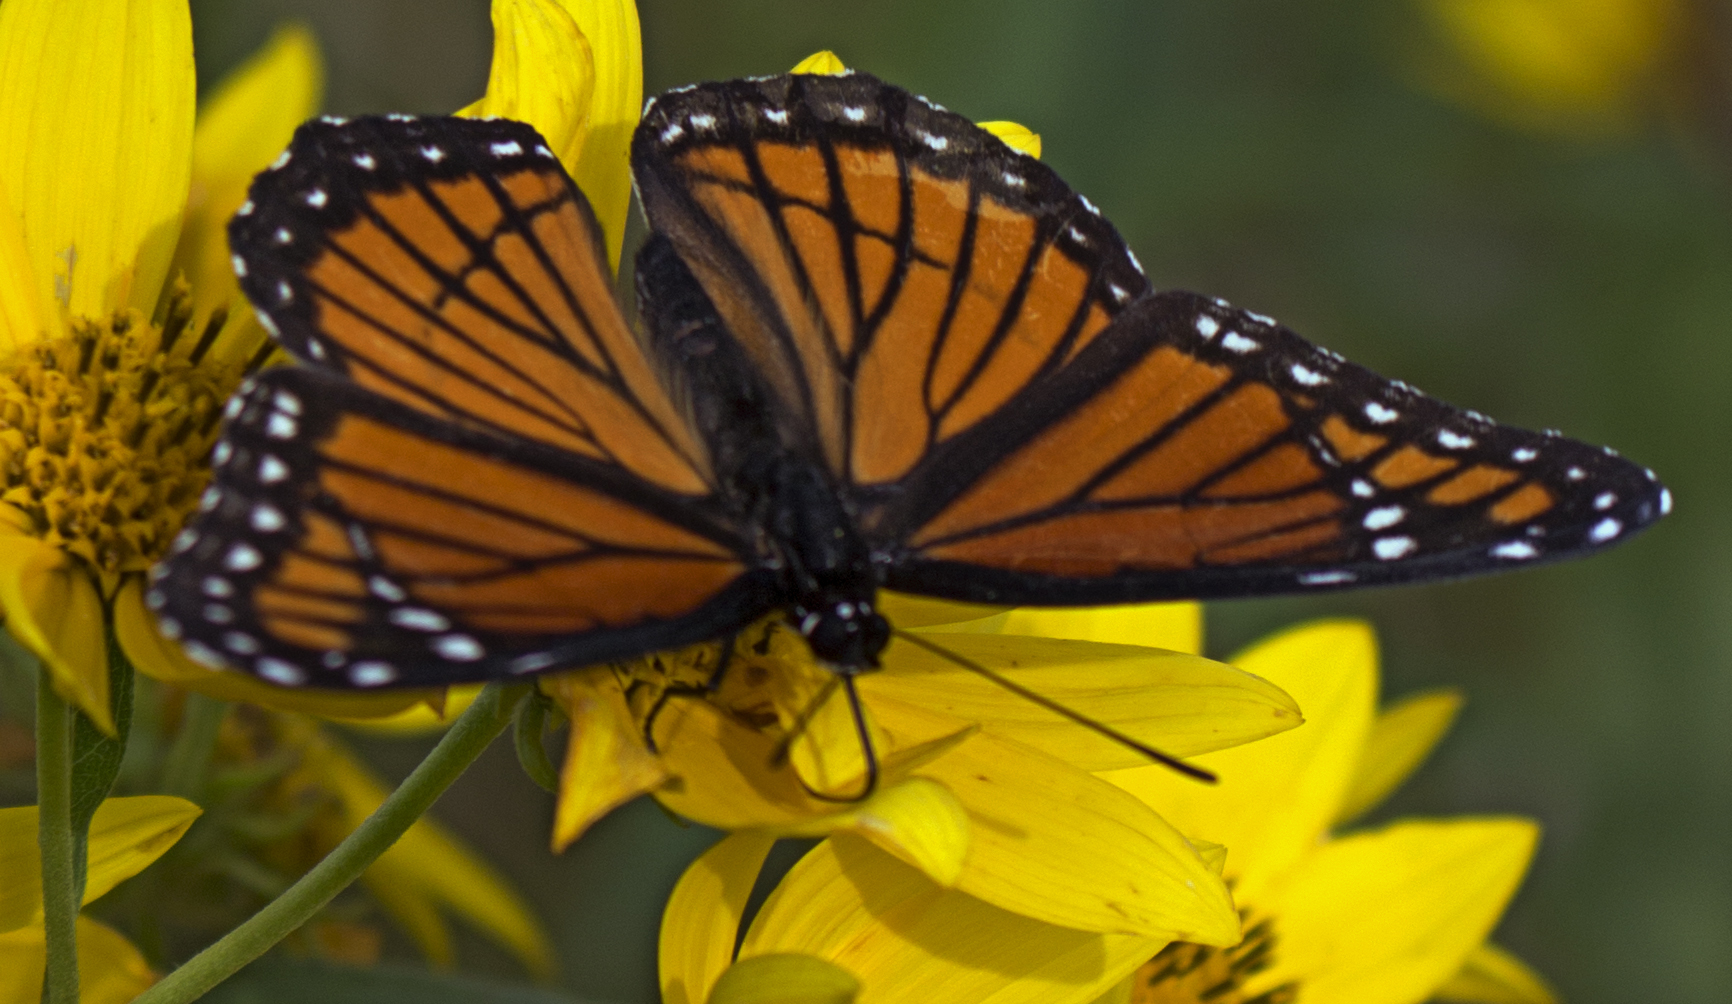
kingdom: Animalia
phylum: Arthropoda
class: Insecta
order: Lepidoptera
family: Nymphalidae
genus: Limenitis
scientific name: Limenitis archippus
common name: Viceroy
